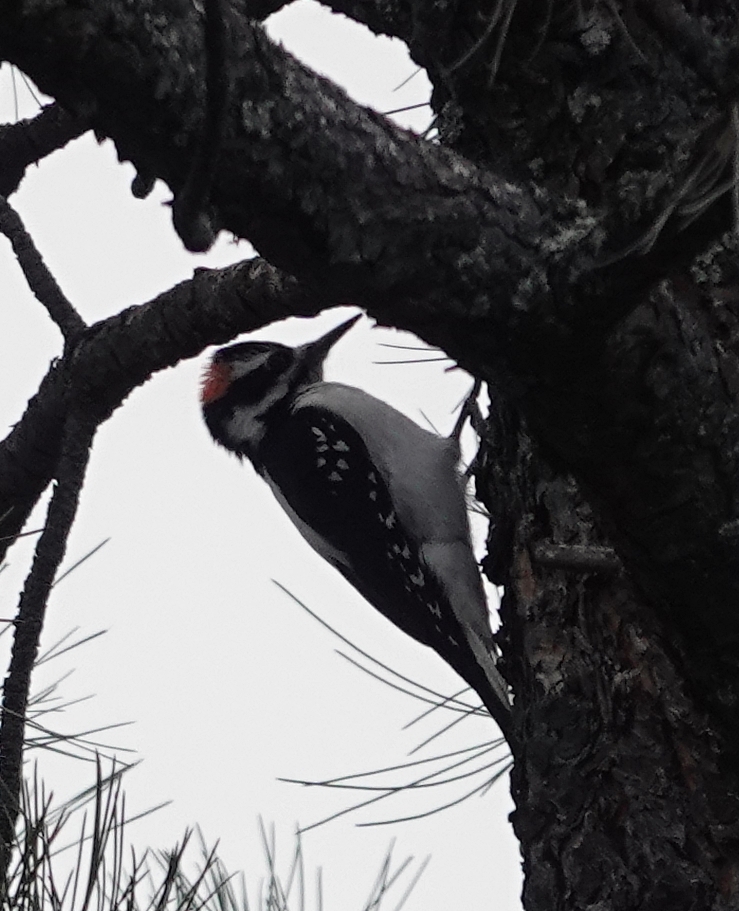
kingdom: Animalia
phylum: Chordata
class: Aves
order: Piciformes
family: Picidae
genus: Leuconotopicus
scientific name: Leuconotopicus villosus
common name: Hairy woodpecker
